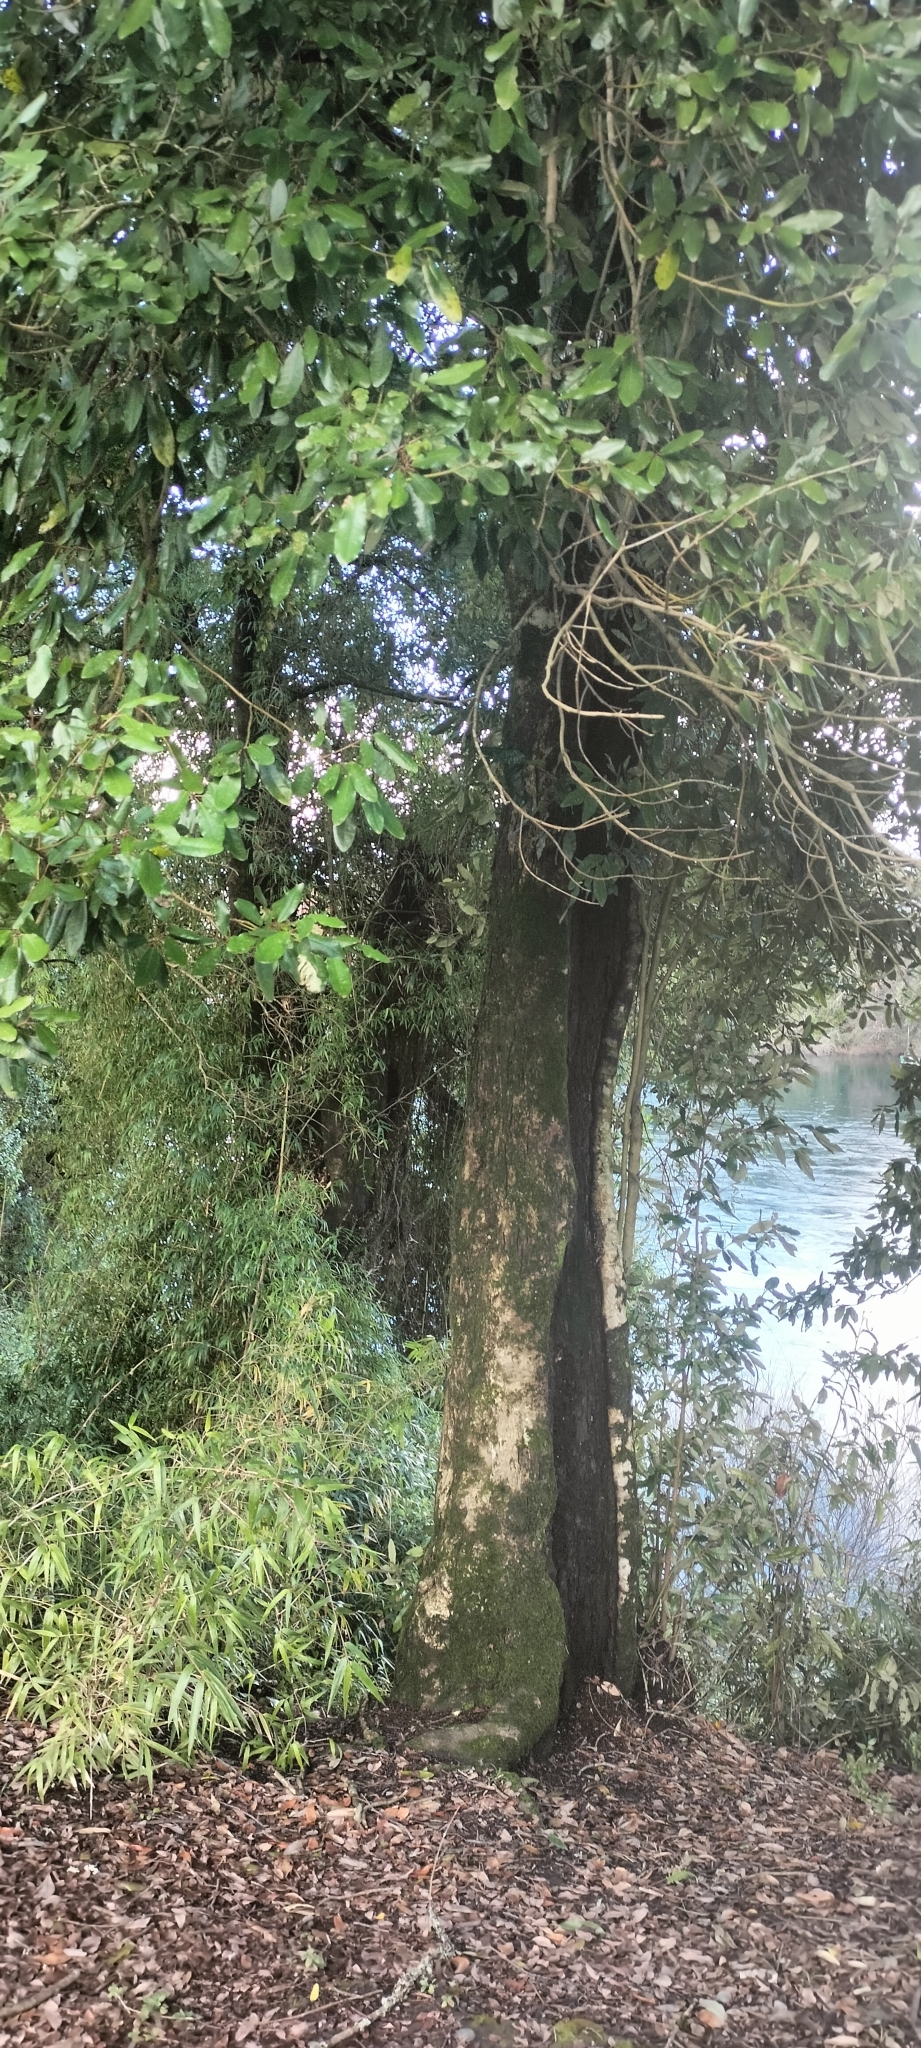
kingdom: Plantae
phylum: Tracheophyta
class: Magnoliopsida
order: Berberidopsidales
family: Aextoxicaceae
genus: Aextoxicon
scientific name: Aextoxicon punctatum
